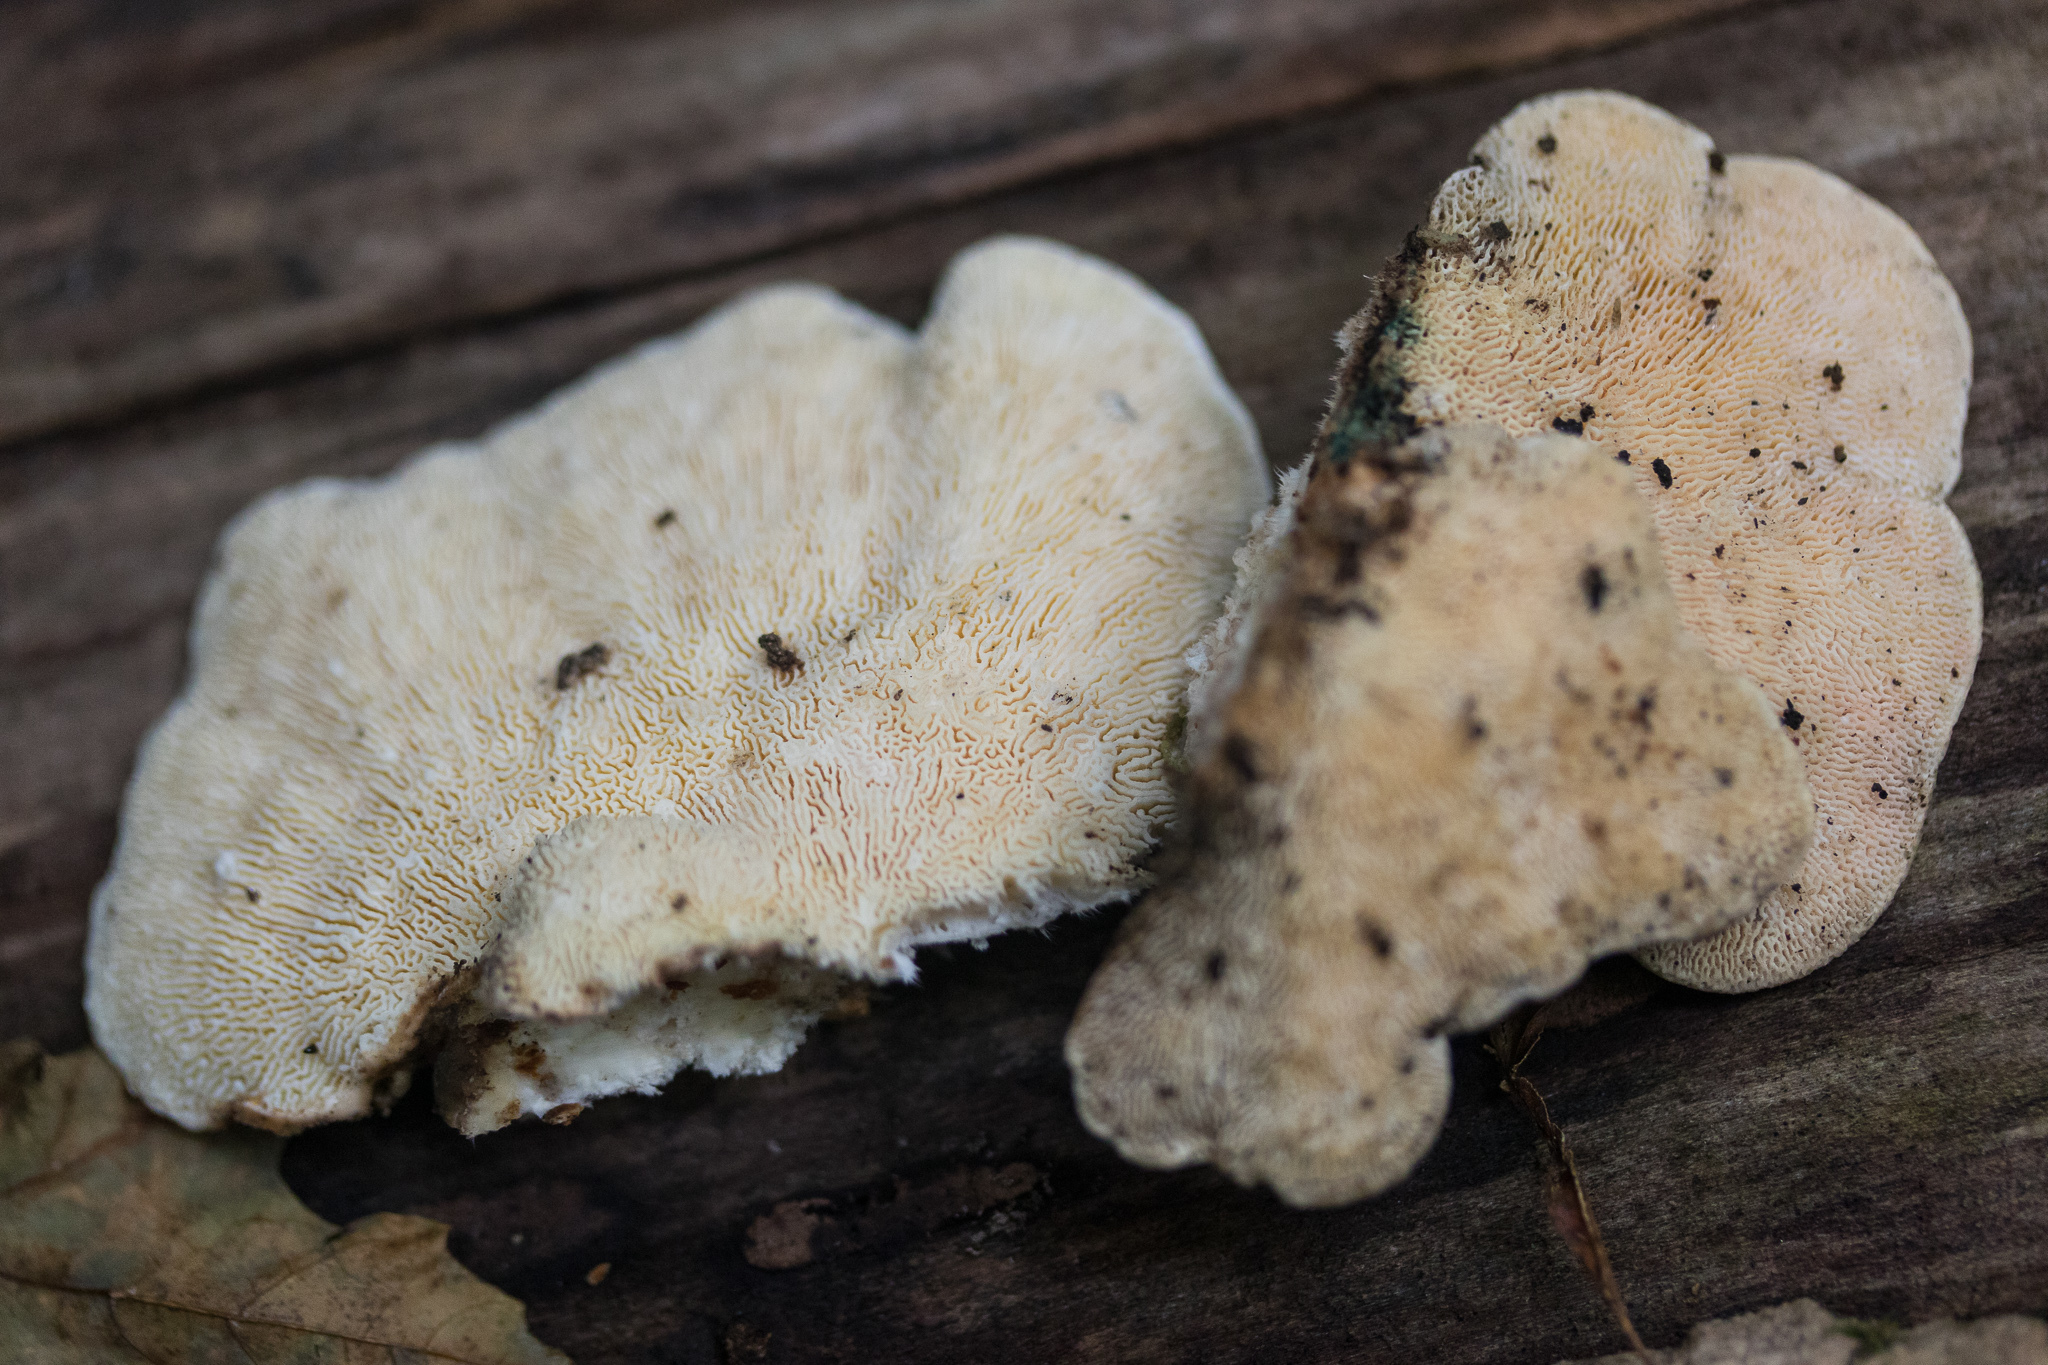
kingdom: Fungi
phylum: Basidiomycota
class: Agaricomycetes
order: Polyporales
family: Polyporaceae
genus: Trametes
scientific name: Trametes gibbosa
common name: Lumpy bracket
